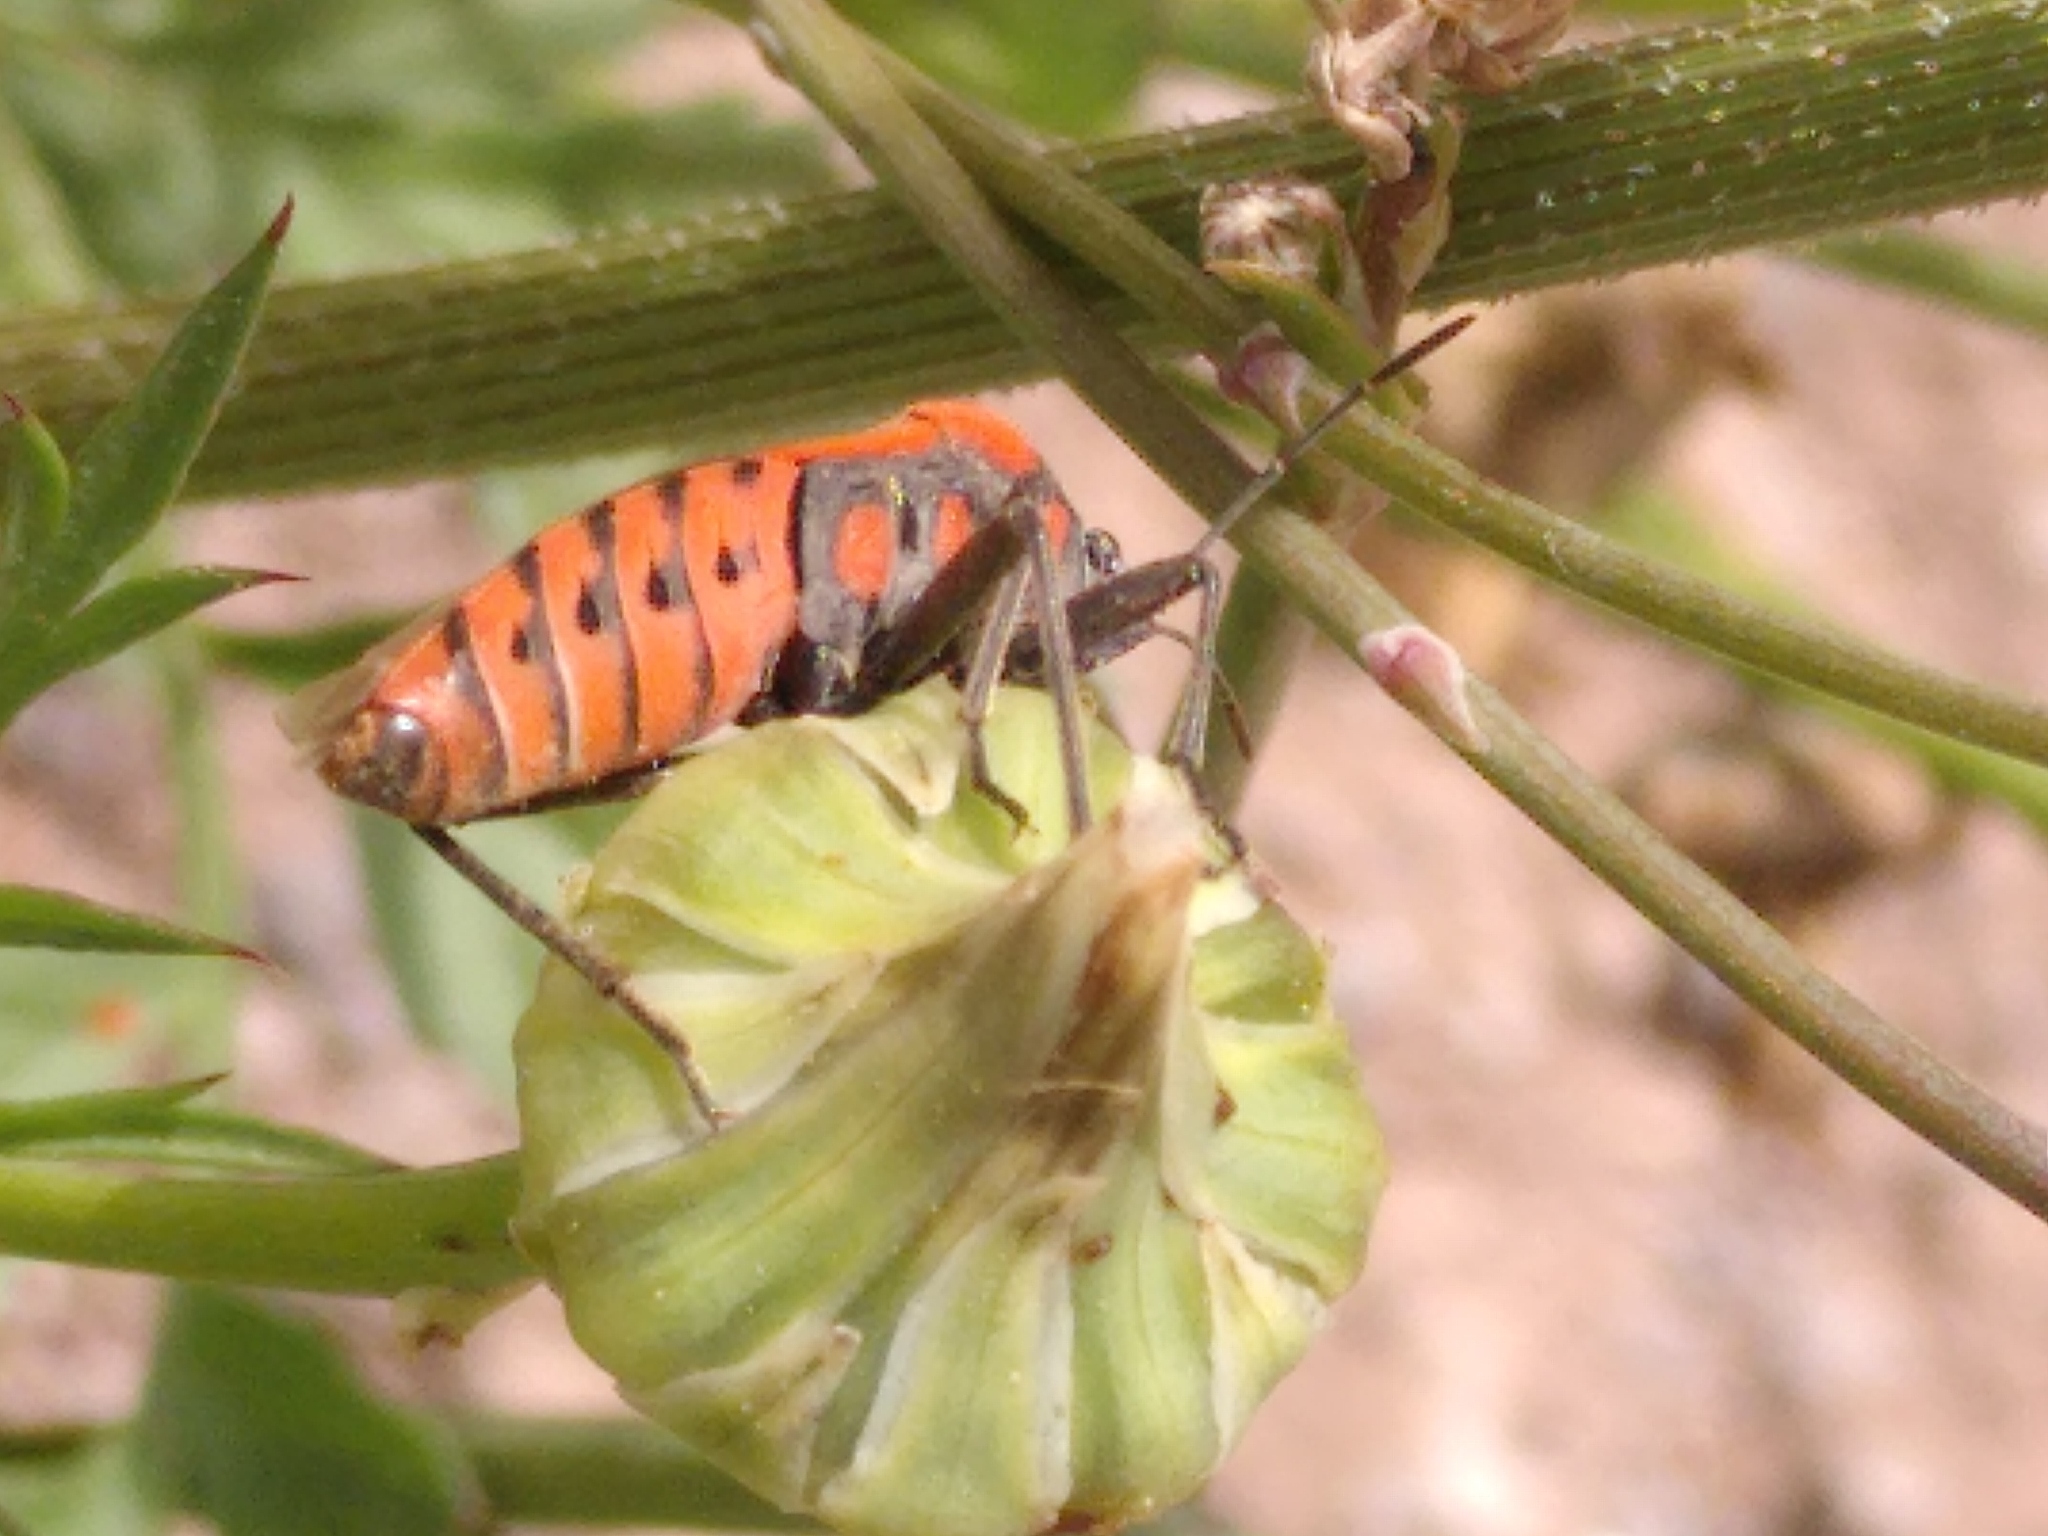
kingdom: Animalia
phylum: Arthropoda
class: Insecta
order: Hemiptera
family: Lygaeidae
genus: Spilostethus
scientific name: Spilostethus pandurus
